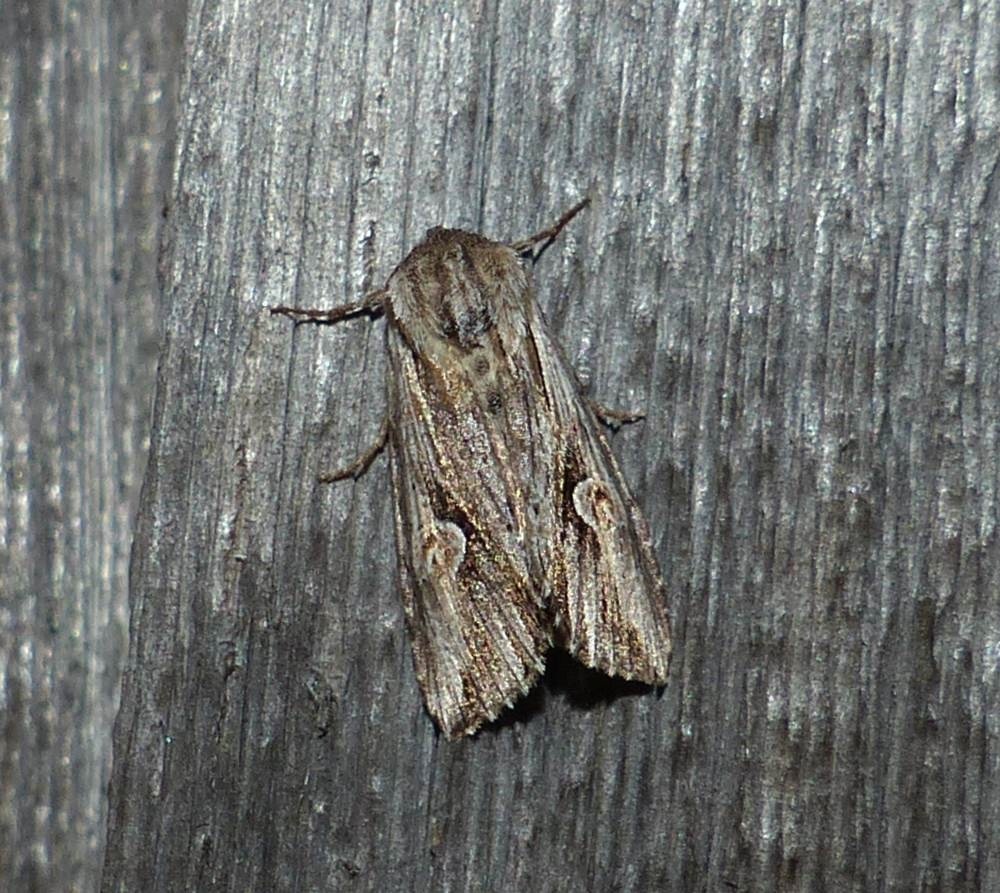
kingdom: Animalia
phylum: Arthropoda
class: Insecta
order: Lepidoptera
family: Noctuidae
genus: Nedra
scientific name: Nedra ramosula
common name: Gray half-spot
